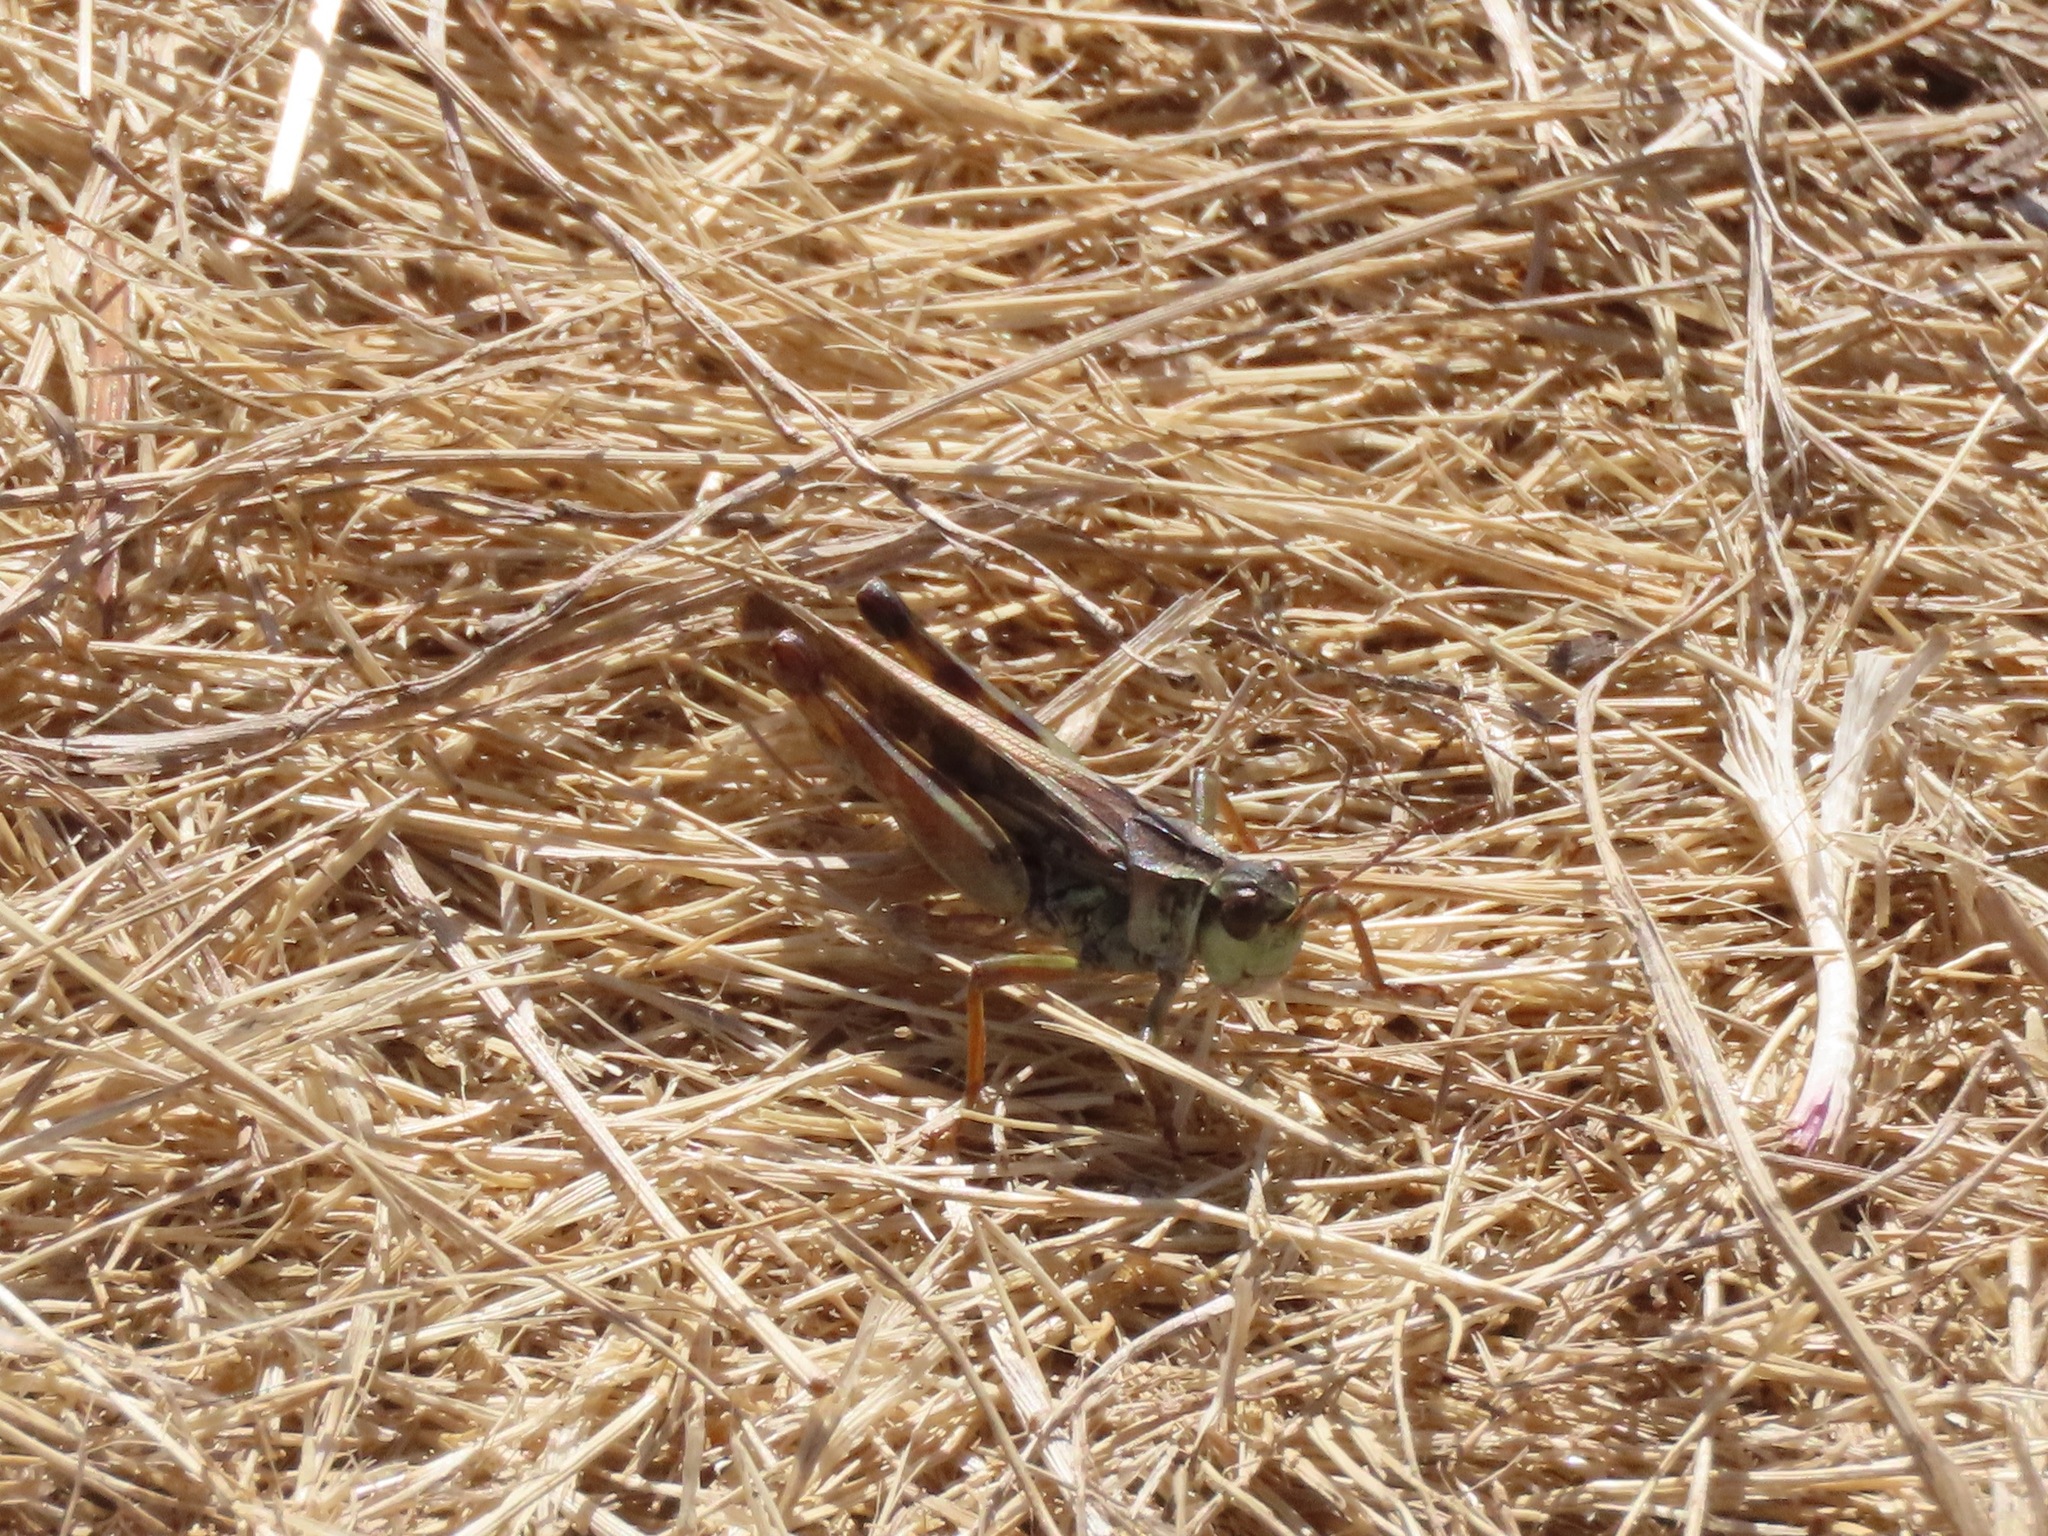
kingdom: Animalia
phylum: Arthropoda
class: Insecta
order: Orthoptera
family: Acrididae
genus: Camnula
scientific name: Camnula pellucida
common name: Clear-winged grasshopper
